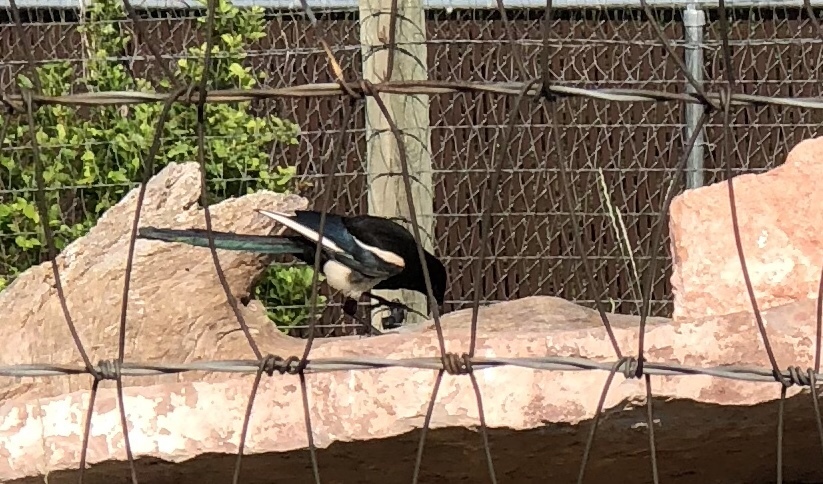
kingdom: Animalia
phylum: Chordata
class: Aves
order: Passeriformes
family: Corvidae
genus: Pica
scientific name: Pica hudsonia
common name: Black-billed magpie
